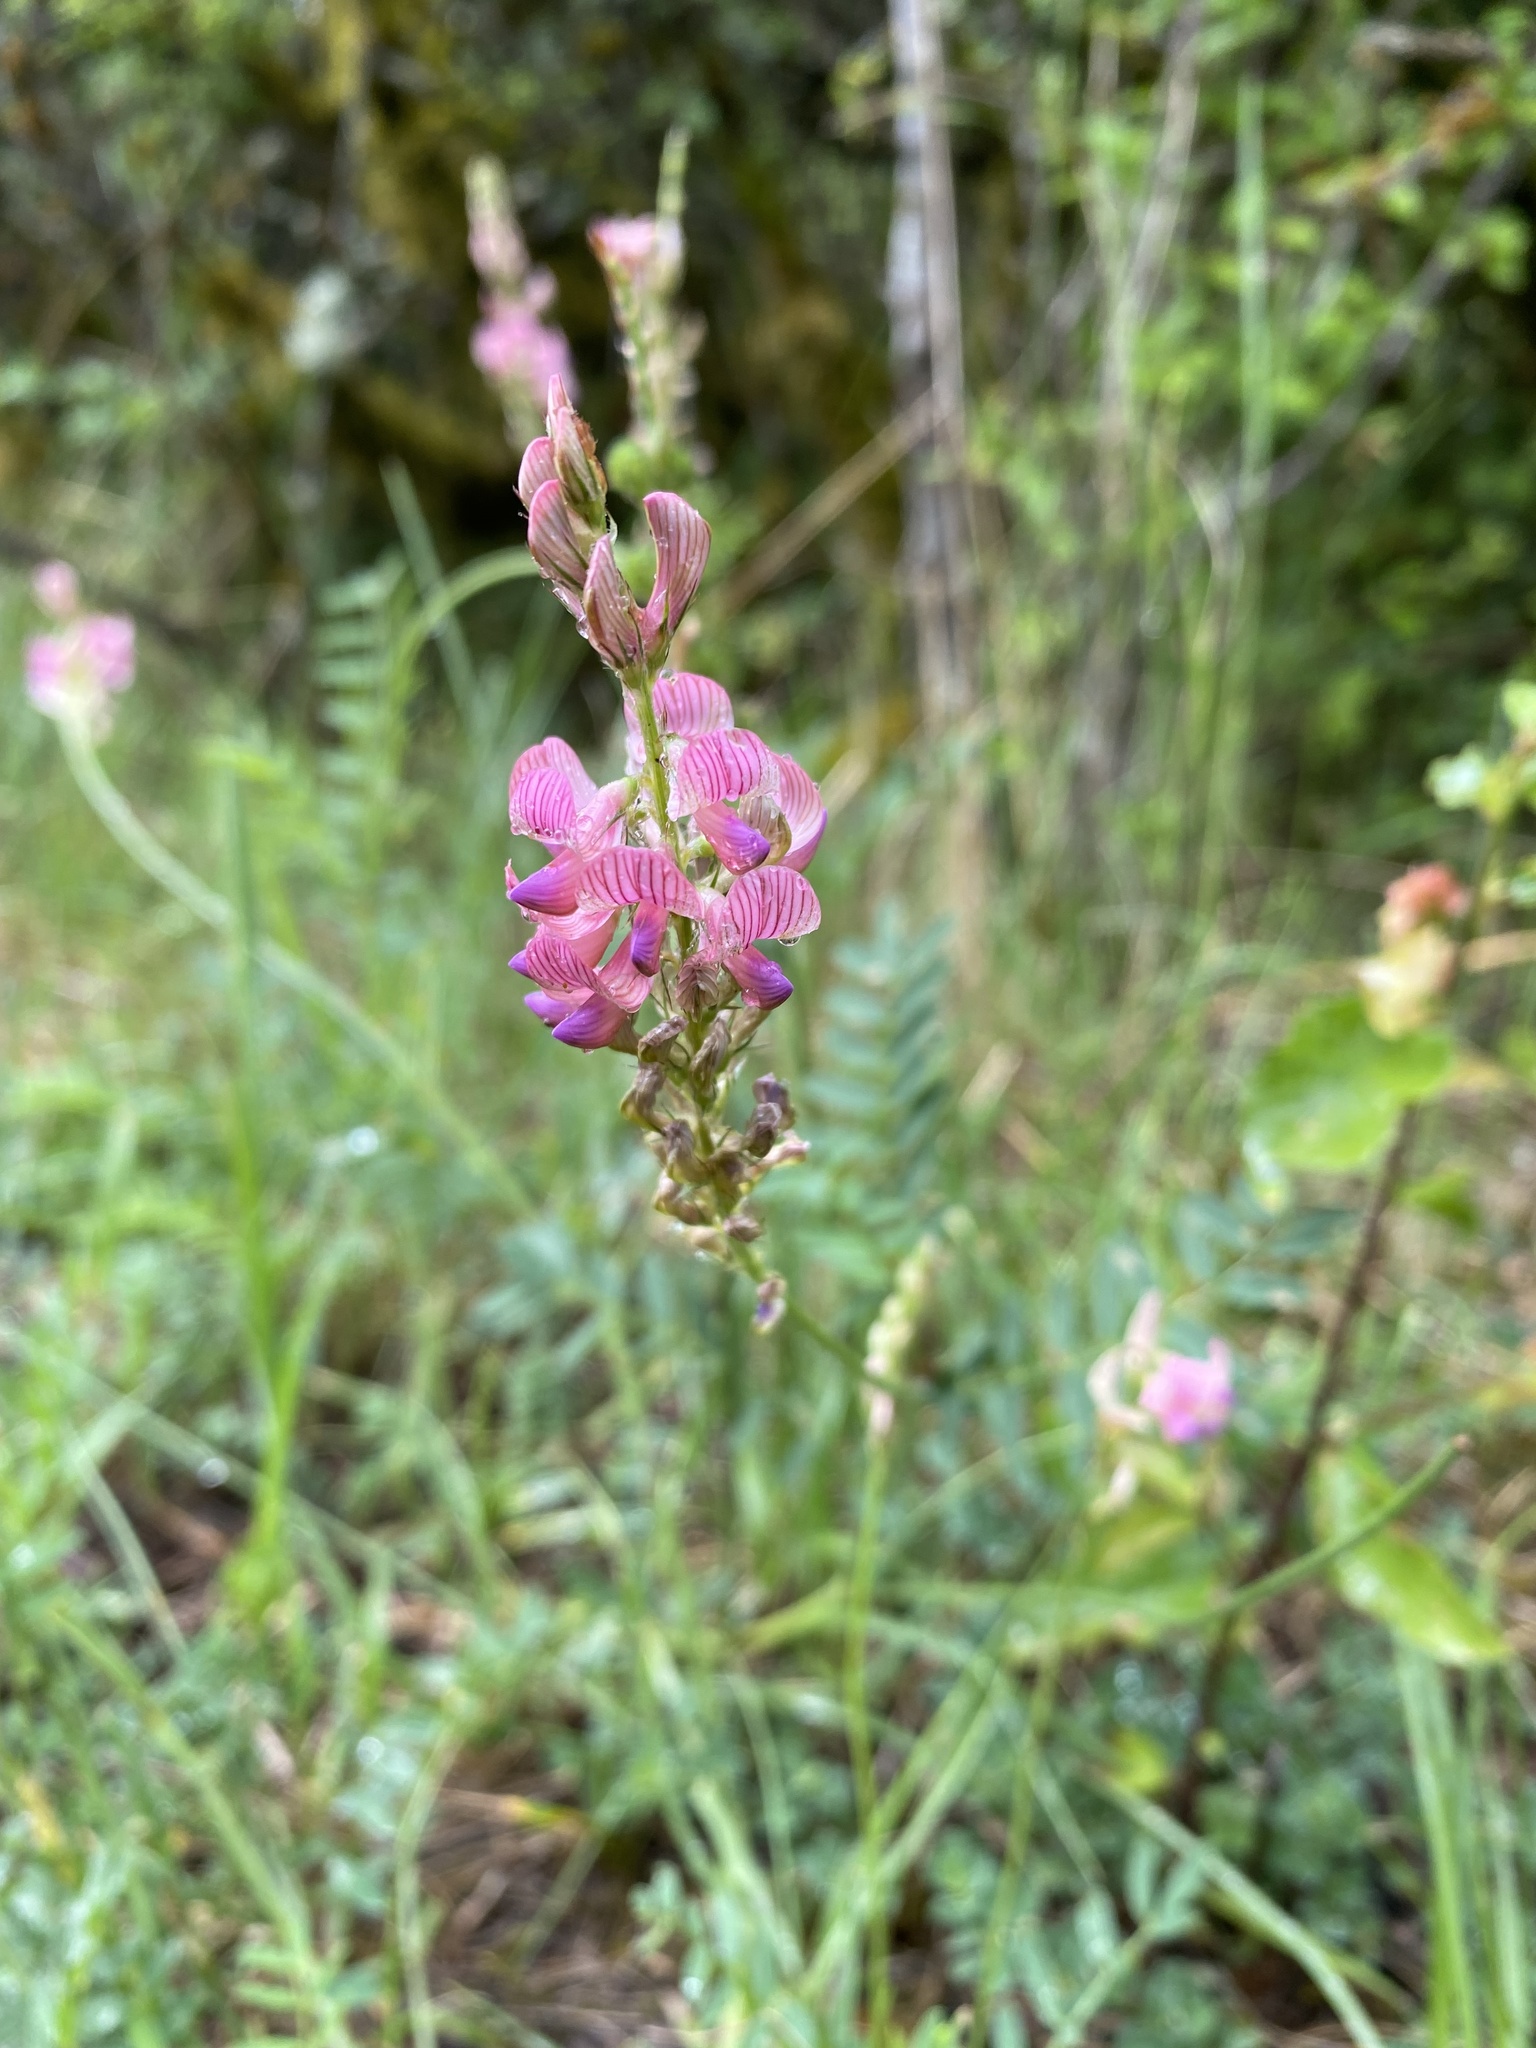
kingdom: Plantae
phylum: Tracheophyta
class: Magnoliopsida
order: Fabales
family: Fabaceae
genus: Onobrychis
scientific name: Onobrychis viciifolia
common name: Sainfoin
